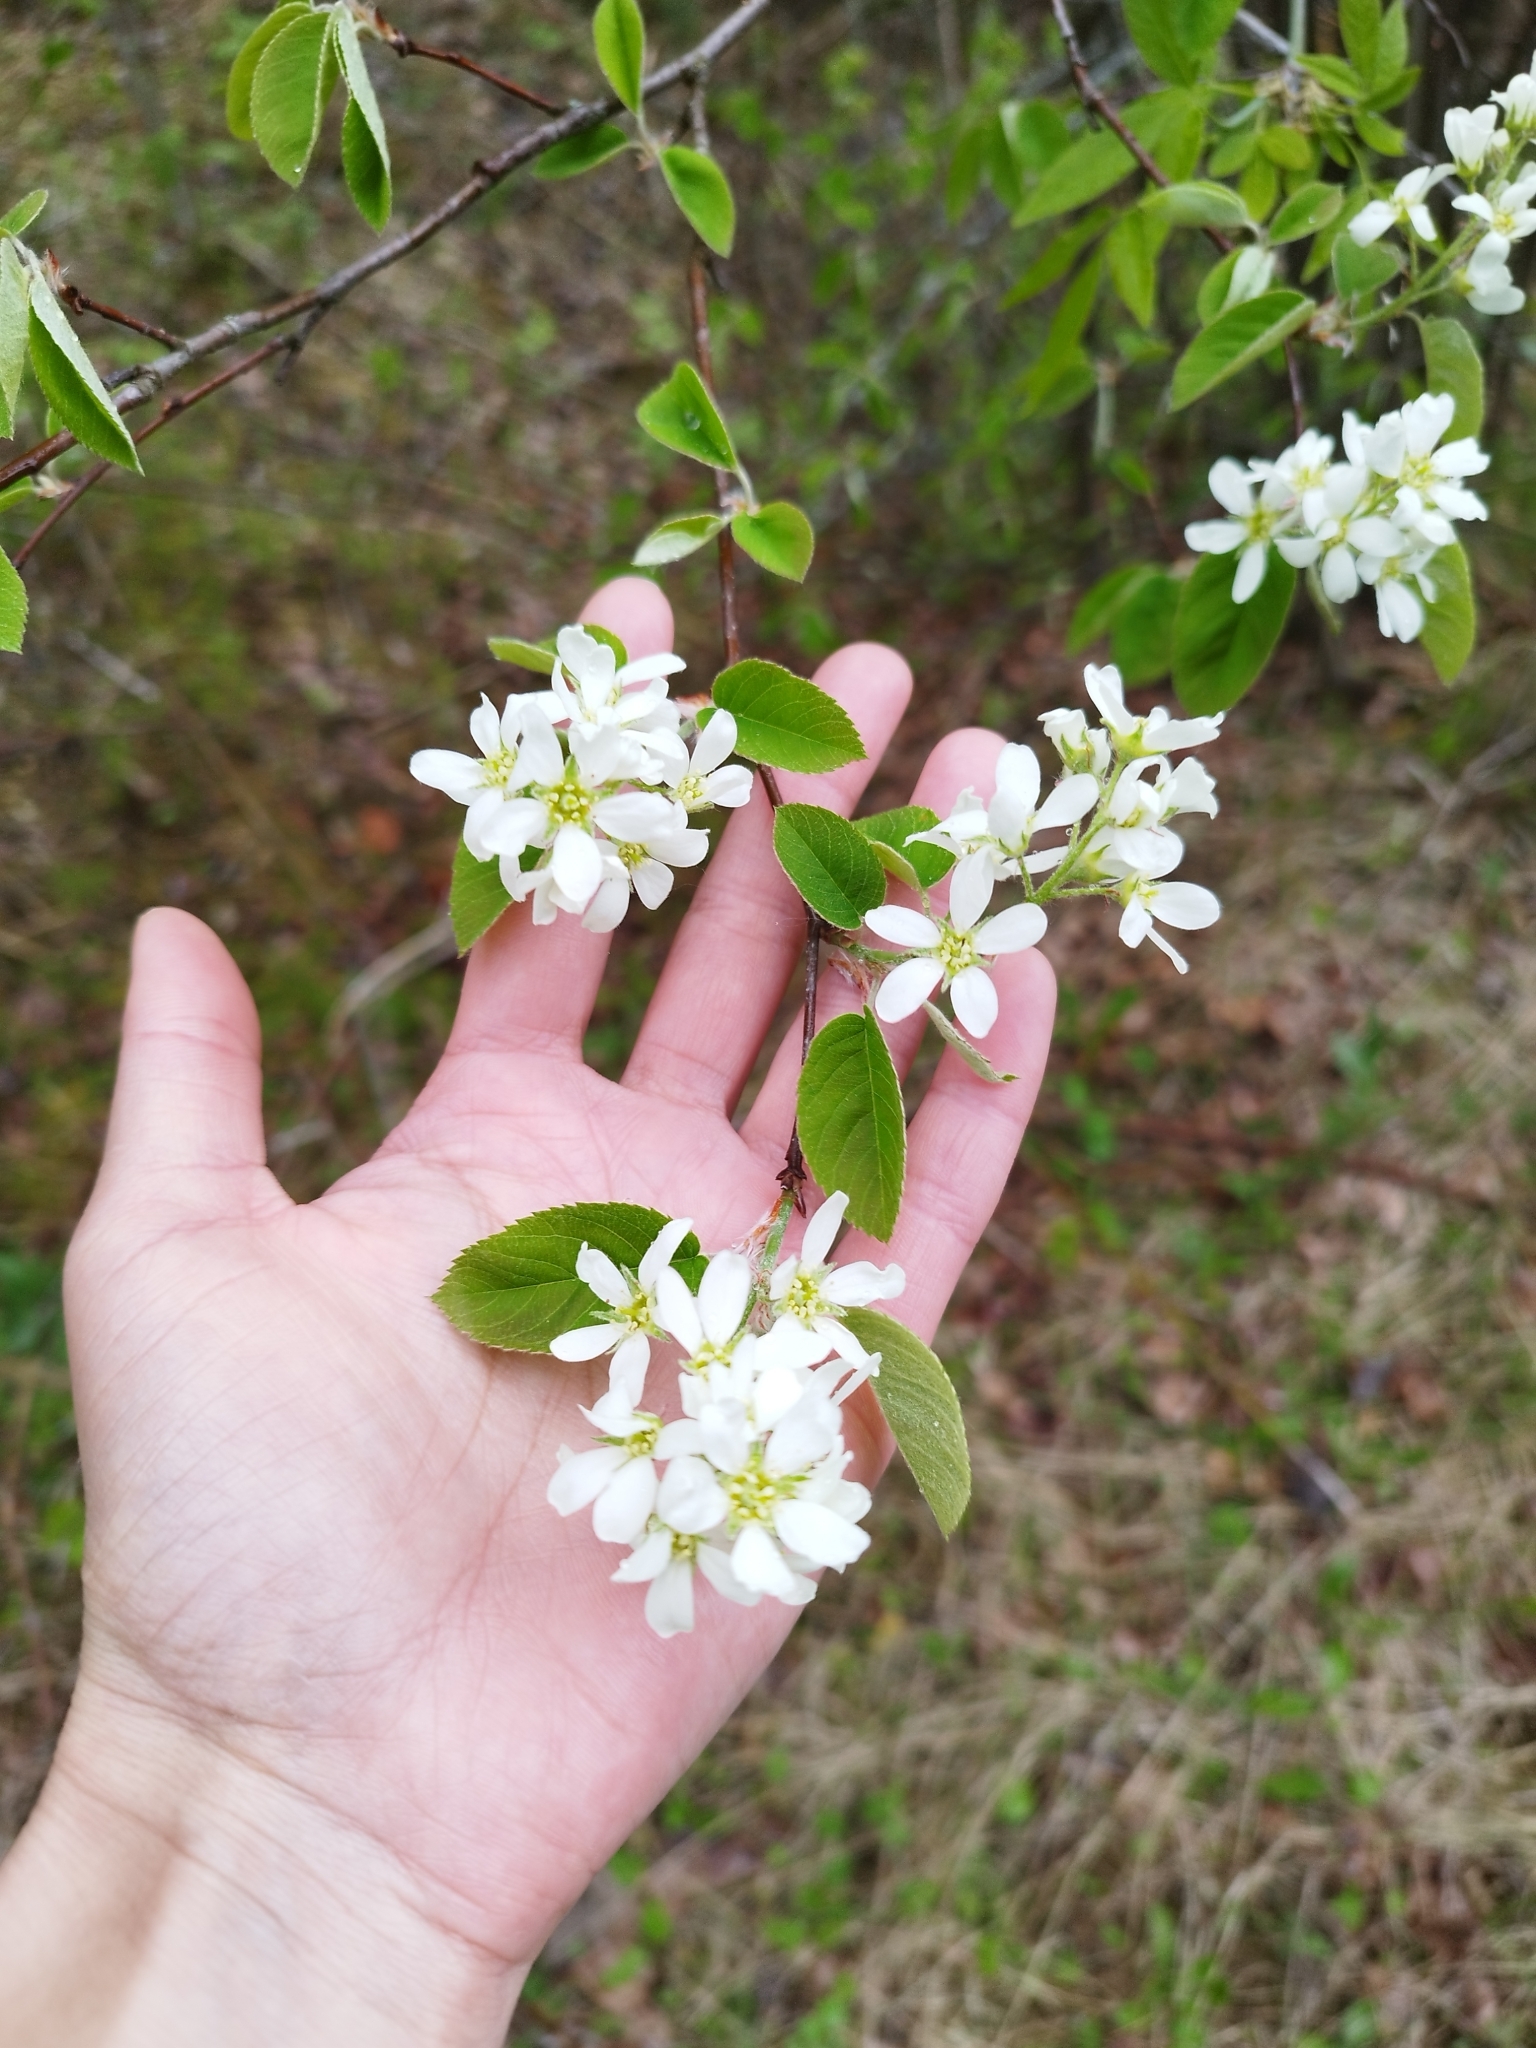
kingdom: Plantae
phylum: Tracheophyta
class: Magnoliopsida
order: Rosales
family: Rosaceae
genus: Amelanchier
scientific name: Amelanchier
